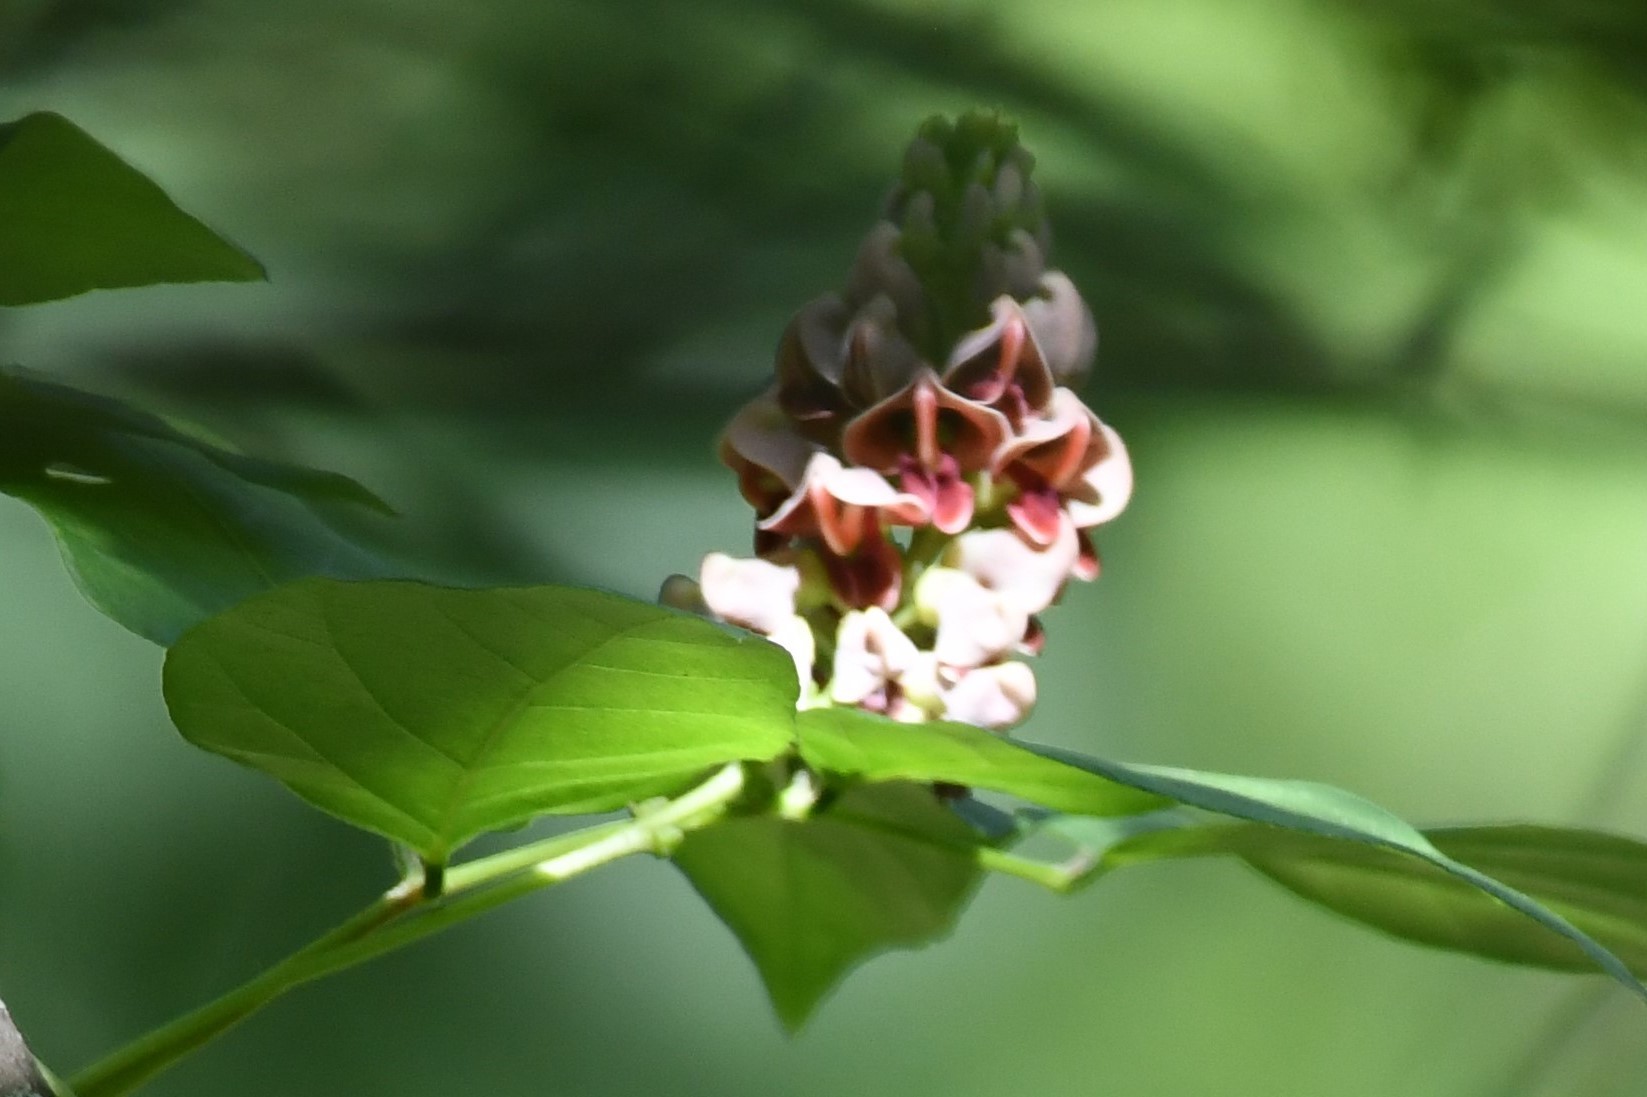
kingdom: Plantae
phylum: Tracheophyta
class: Magnoliopsida
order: Fabales
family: Fabaceae
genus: Apios
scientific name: Apios americana
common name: American potato-bean
